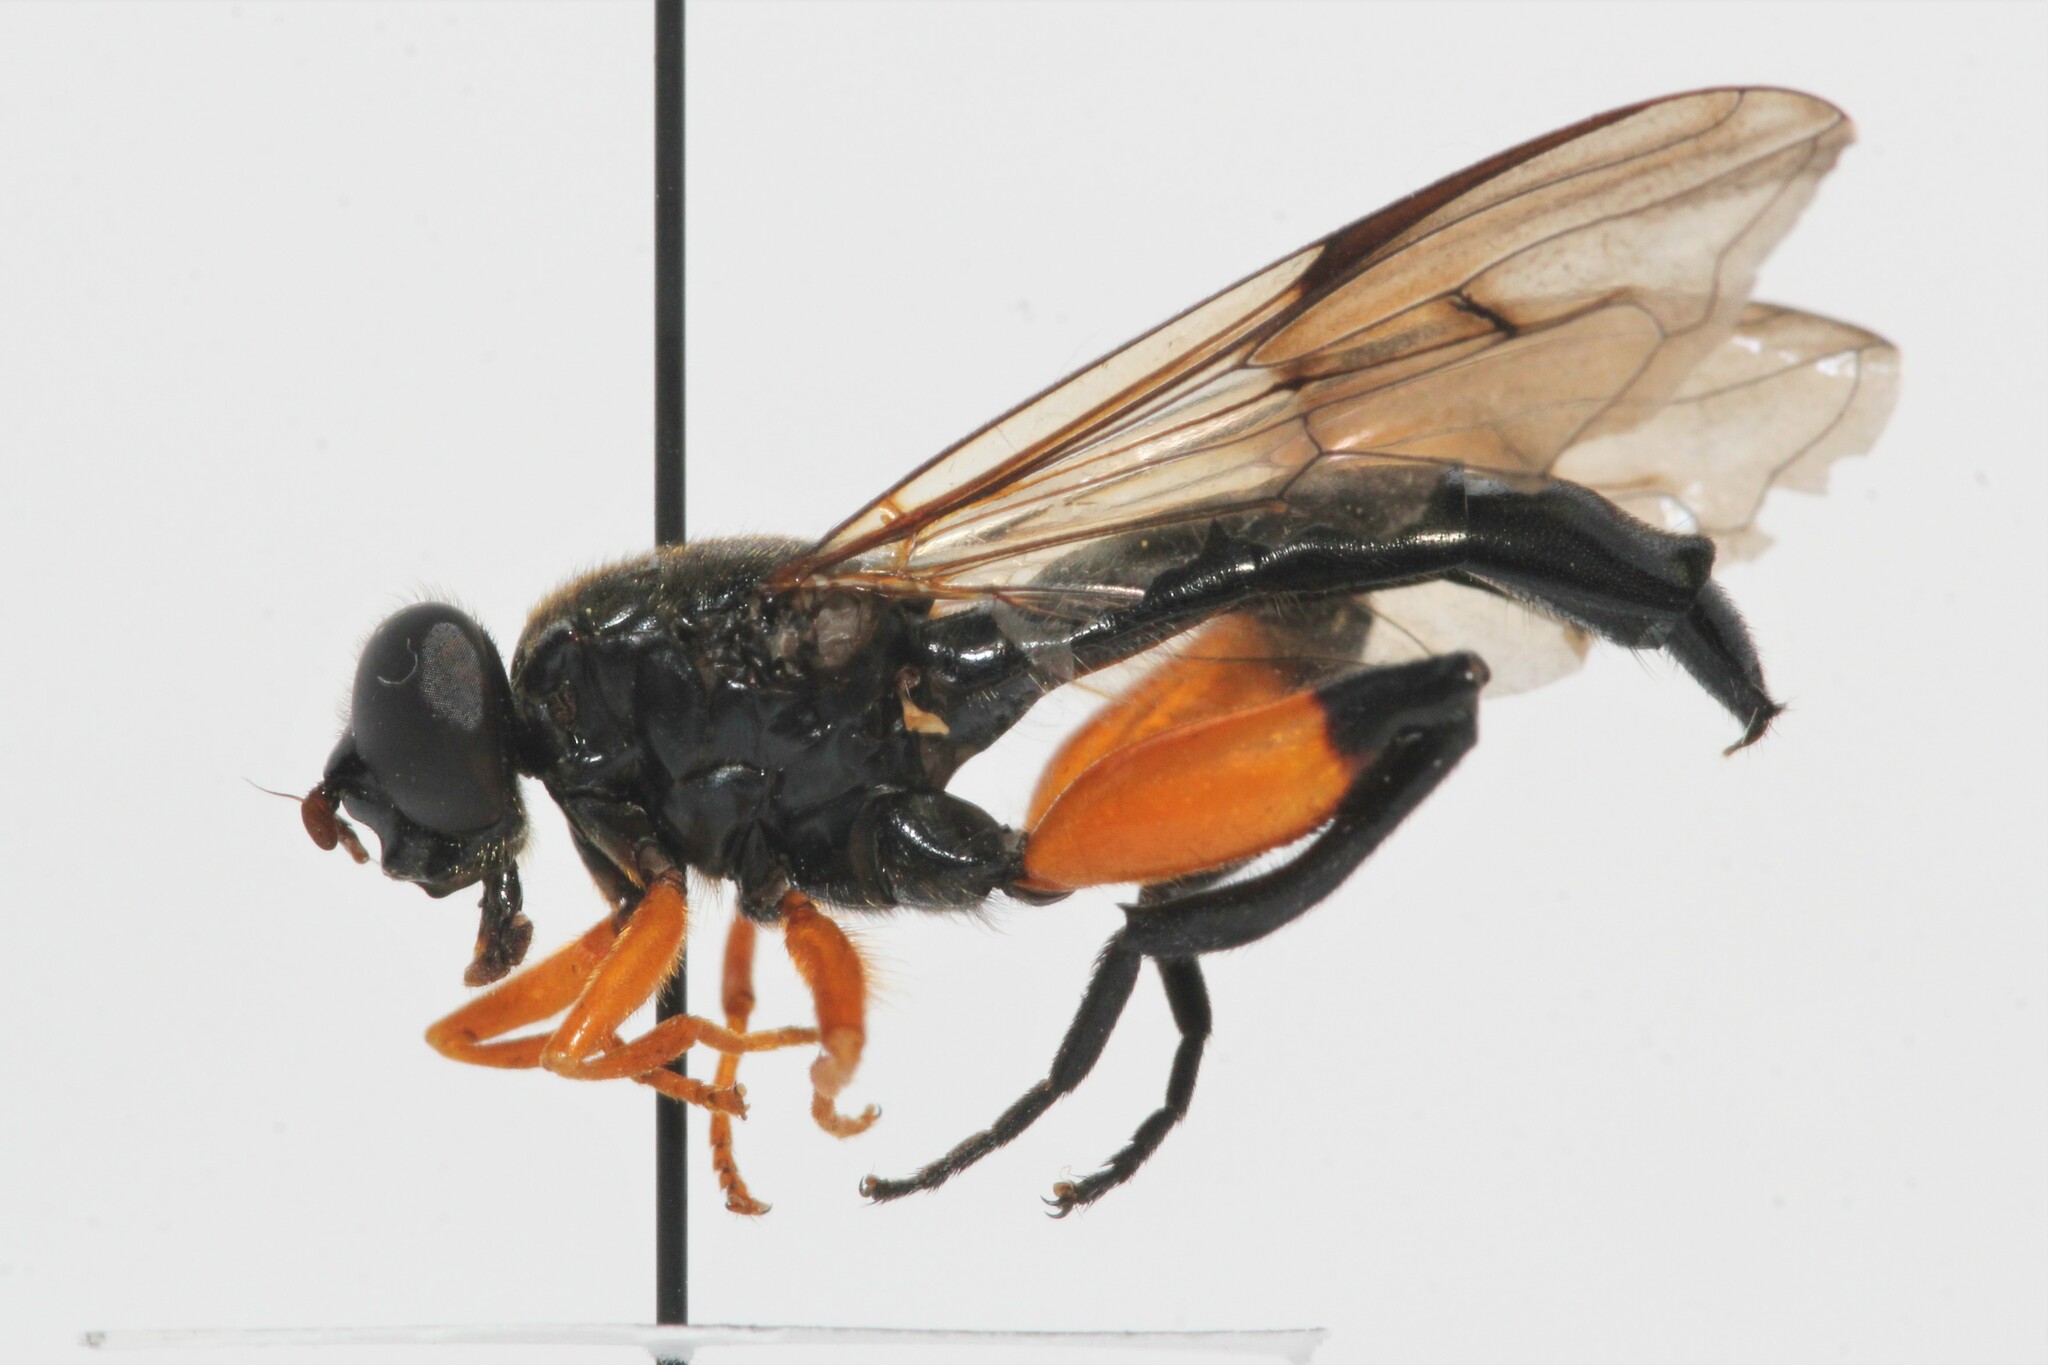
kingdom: Animalia
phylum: Arthropoda
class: Insecta
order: Diptera
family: Syrphidae
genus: Chalcosyrphus
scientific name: Chalcosyrphus curvaria
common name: Yellow-haltered forest fly
